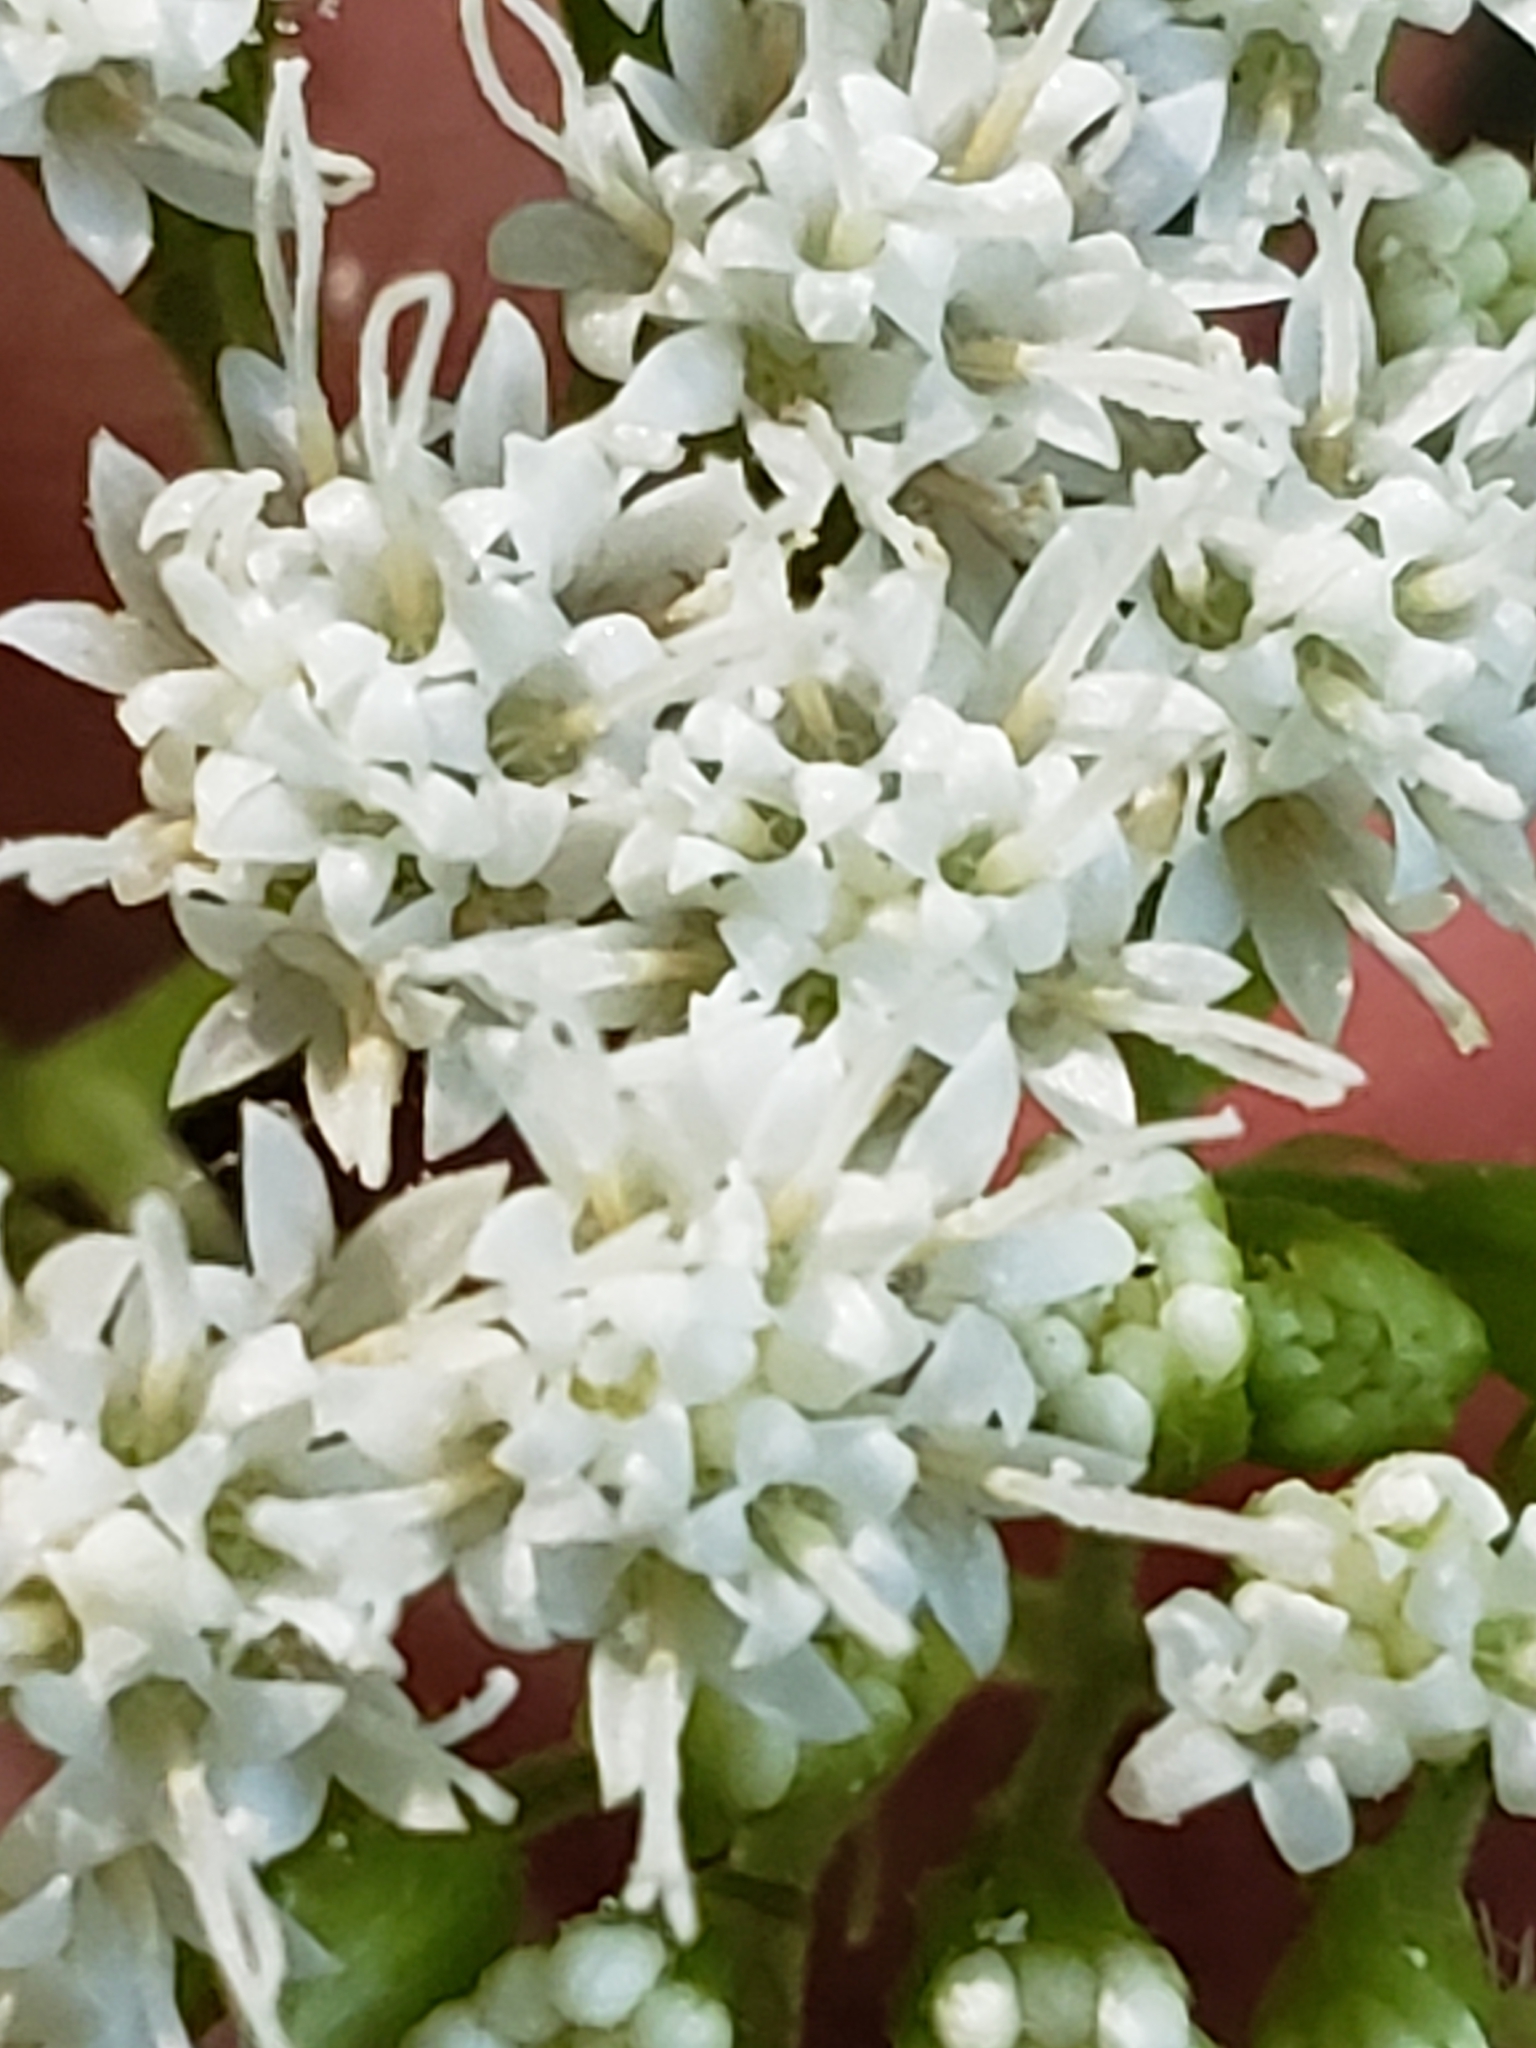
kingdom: Plantae
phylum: Tracheophyta
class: Magnoliopsida
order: Asterales
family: Asteraceae
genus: Ageratina
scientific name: Ageratina altissima
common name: White snakeroot
